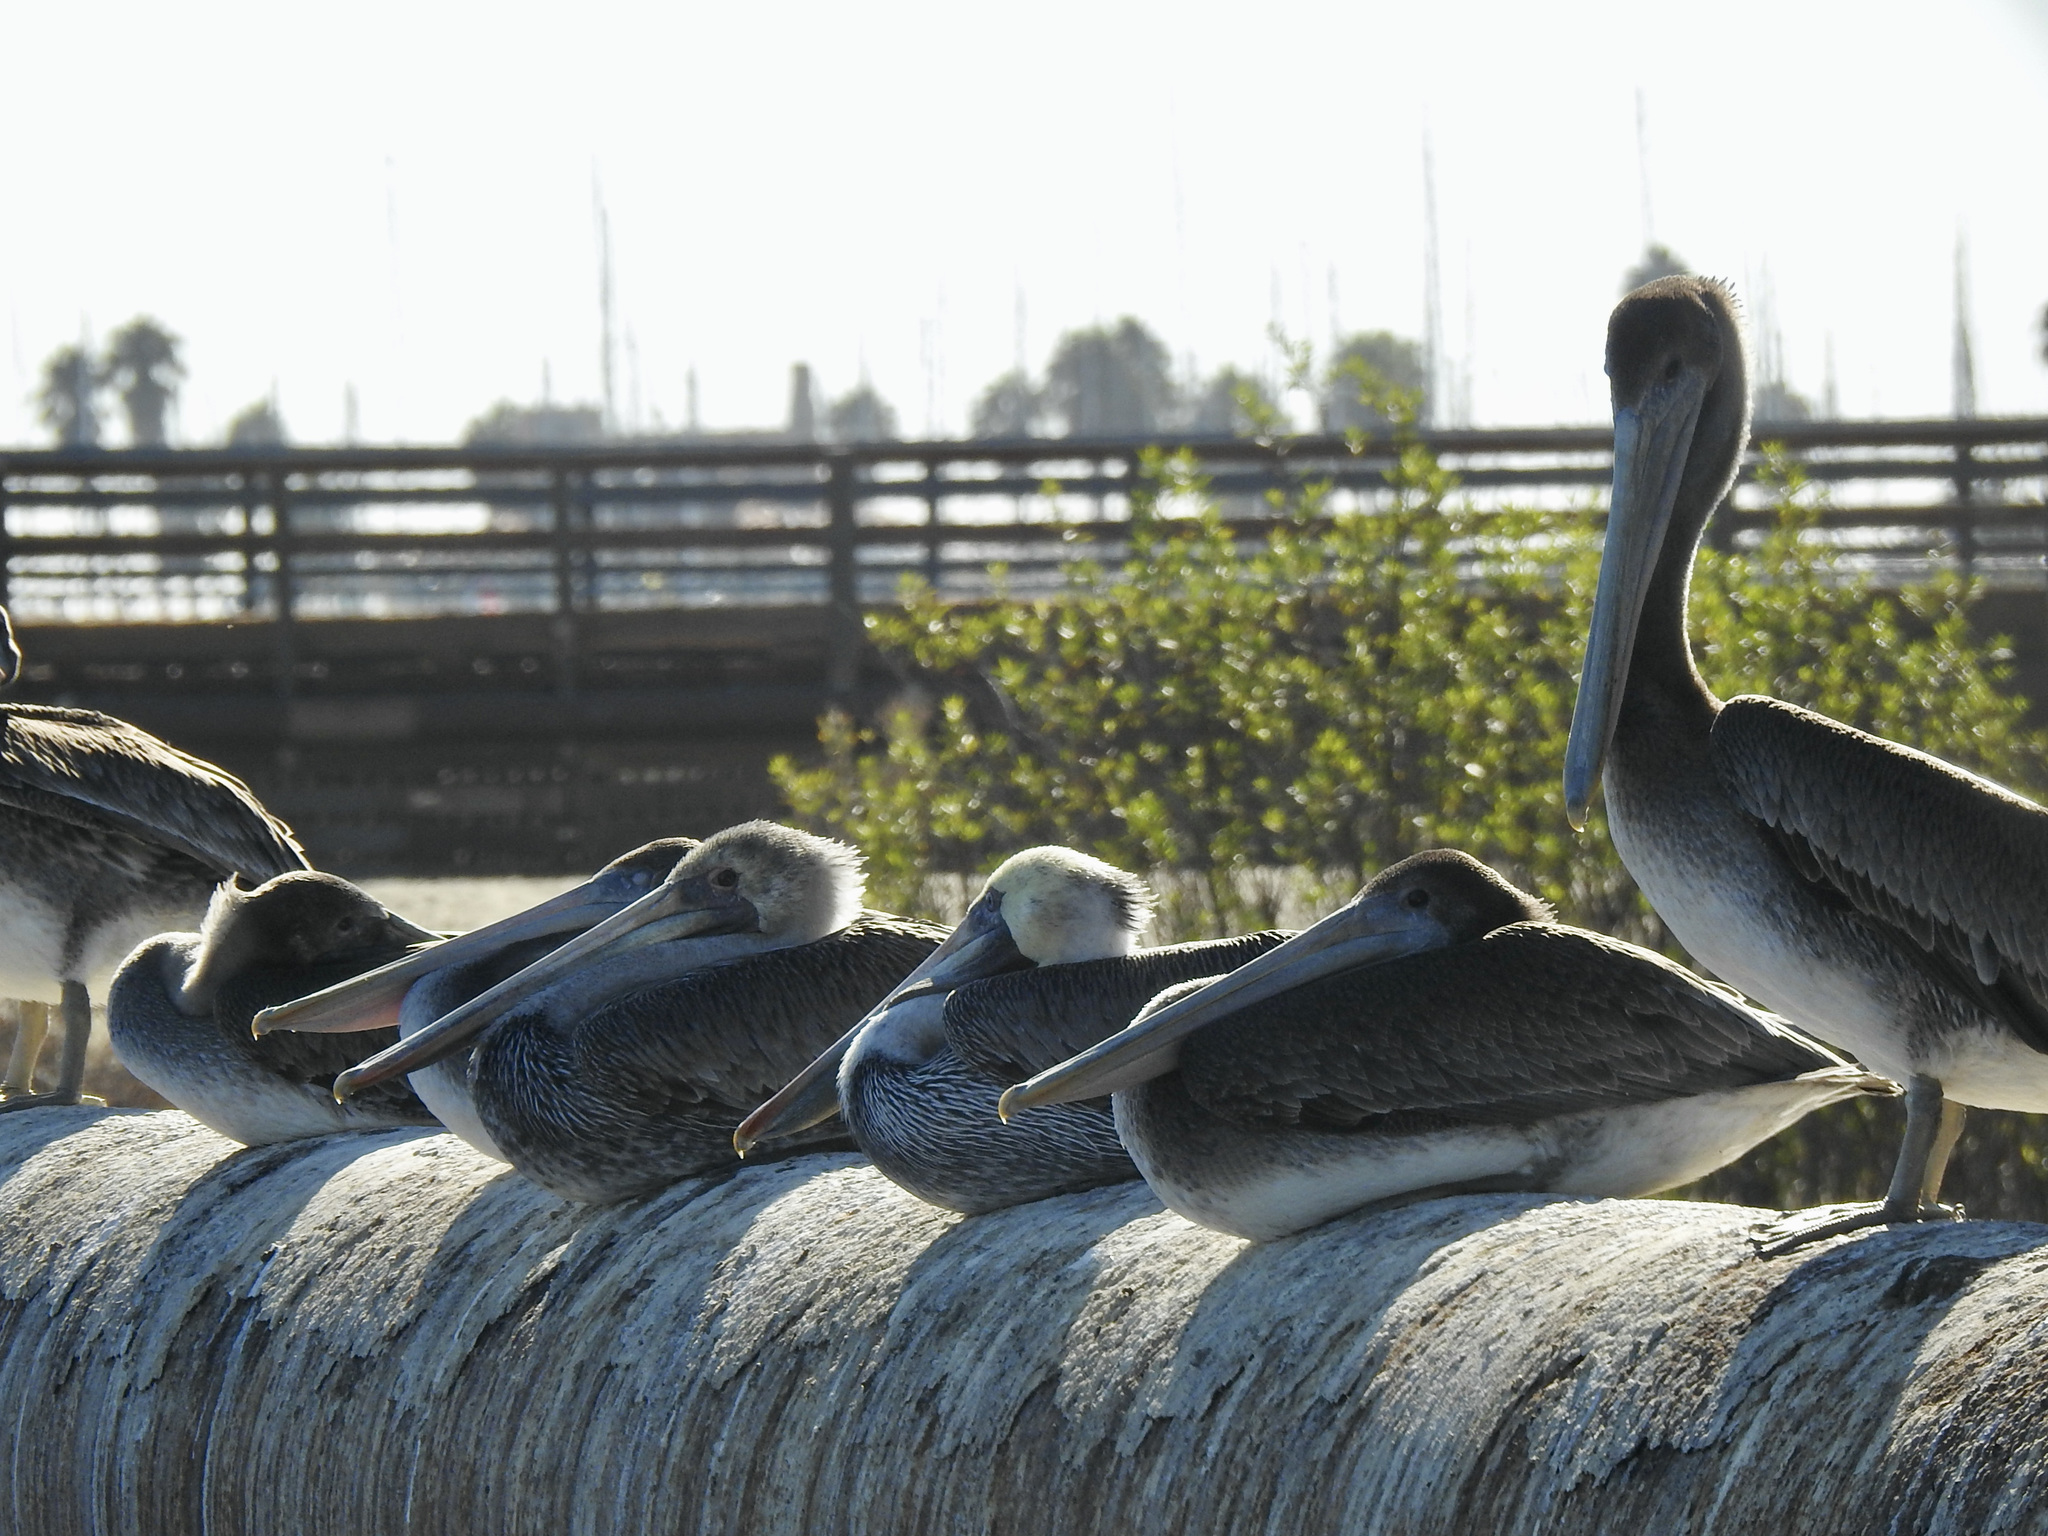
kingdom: Animalia
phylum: Chordata
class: Aves
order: Pelecaniformes
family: Pelecanidae
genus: Pelecanus
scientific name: Pelecanus occidentalis
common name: Brown pelican
